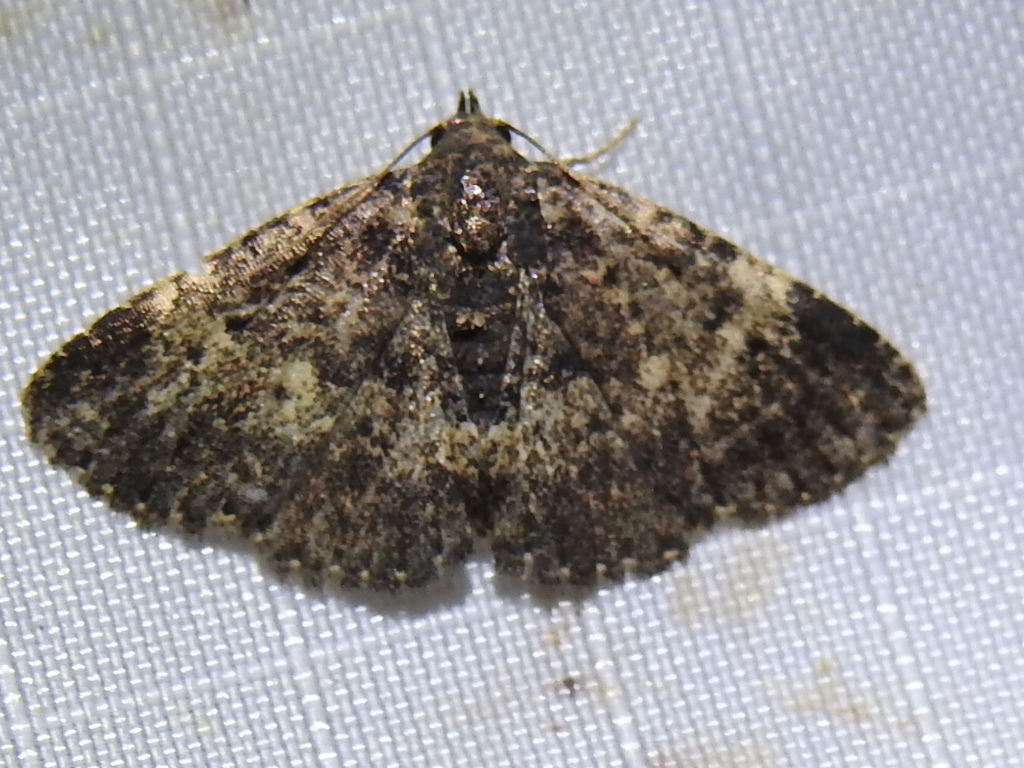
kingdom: Animalia
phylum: Arthropoda
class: Insecta
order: Lepidoptera
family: Erebidae
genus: Metalectra
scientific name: Metalectra diabolica
